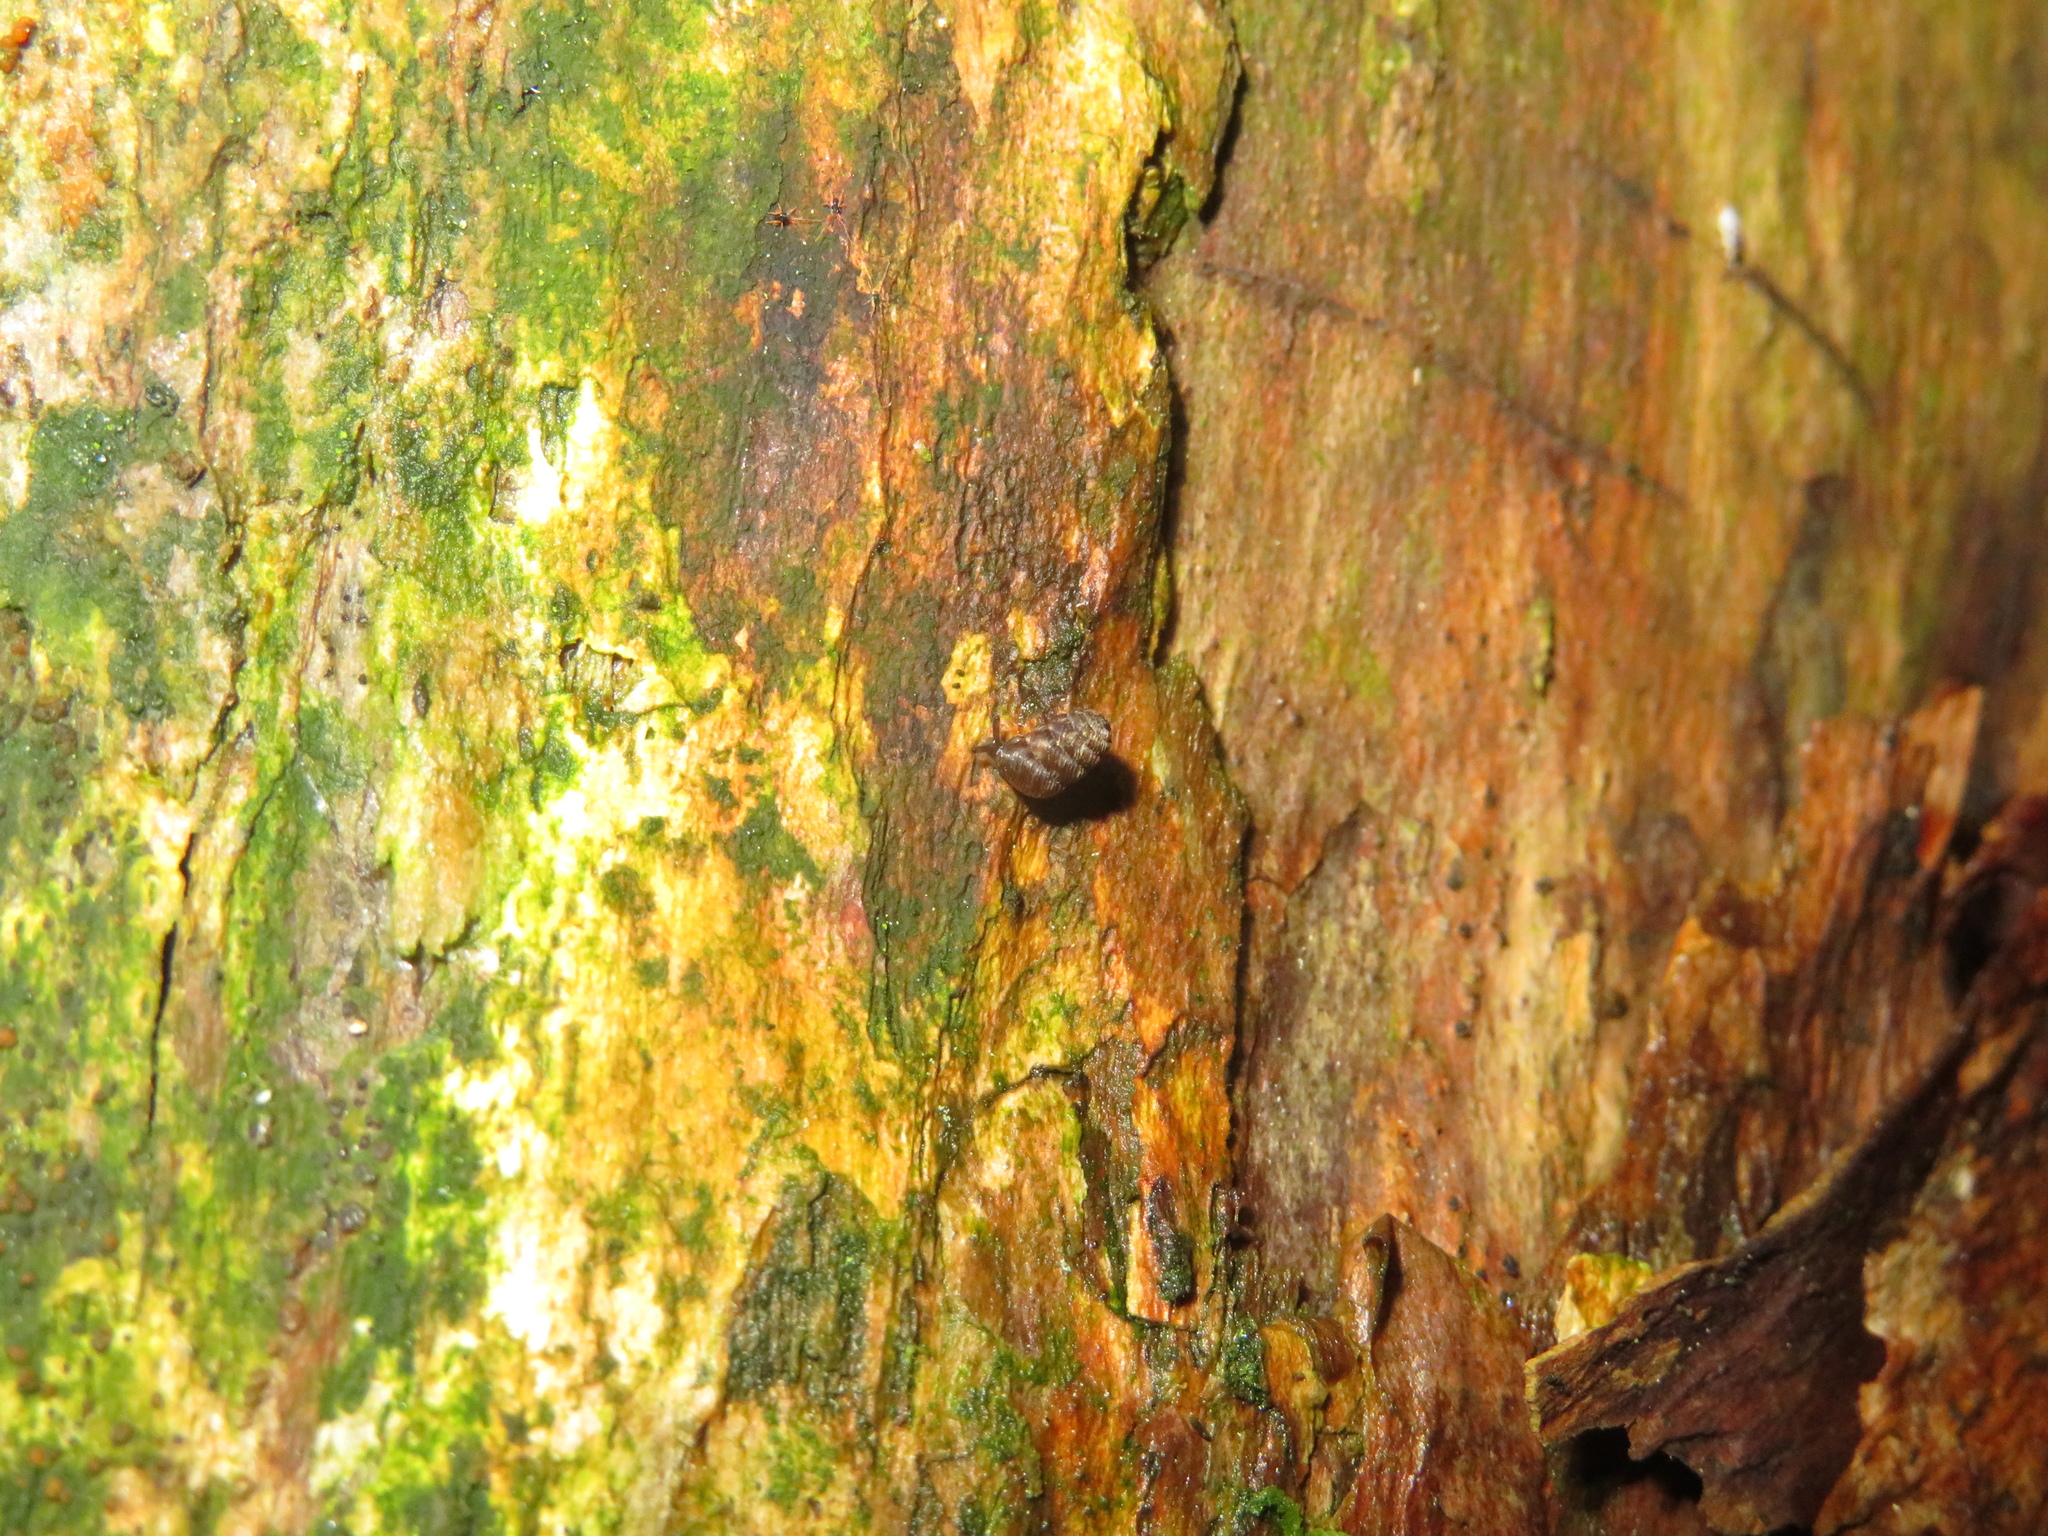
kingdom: Animalia
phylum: Mollusca
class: Gastropoda
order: Stylommatophora
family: Charopidae
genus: Phenacharopa
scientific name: Phenacharopa novoseelandica
